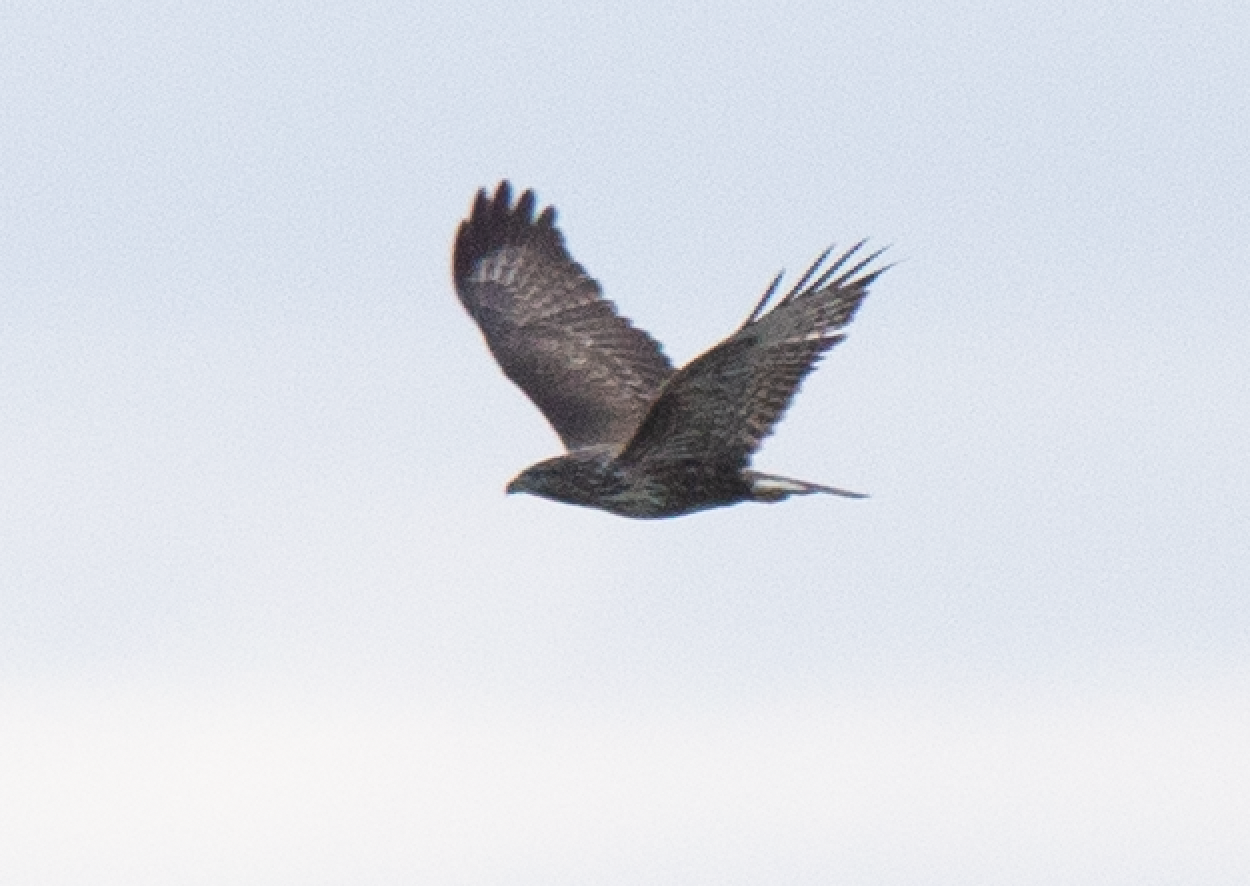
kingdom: Animalia
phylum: Chordata
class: Aves
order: Accipitriformes
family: Accipitridae
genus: Buteo
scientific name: Buteo buteo
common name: Common buzzard
